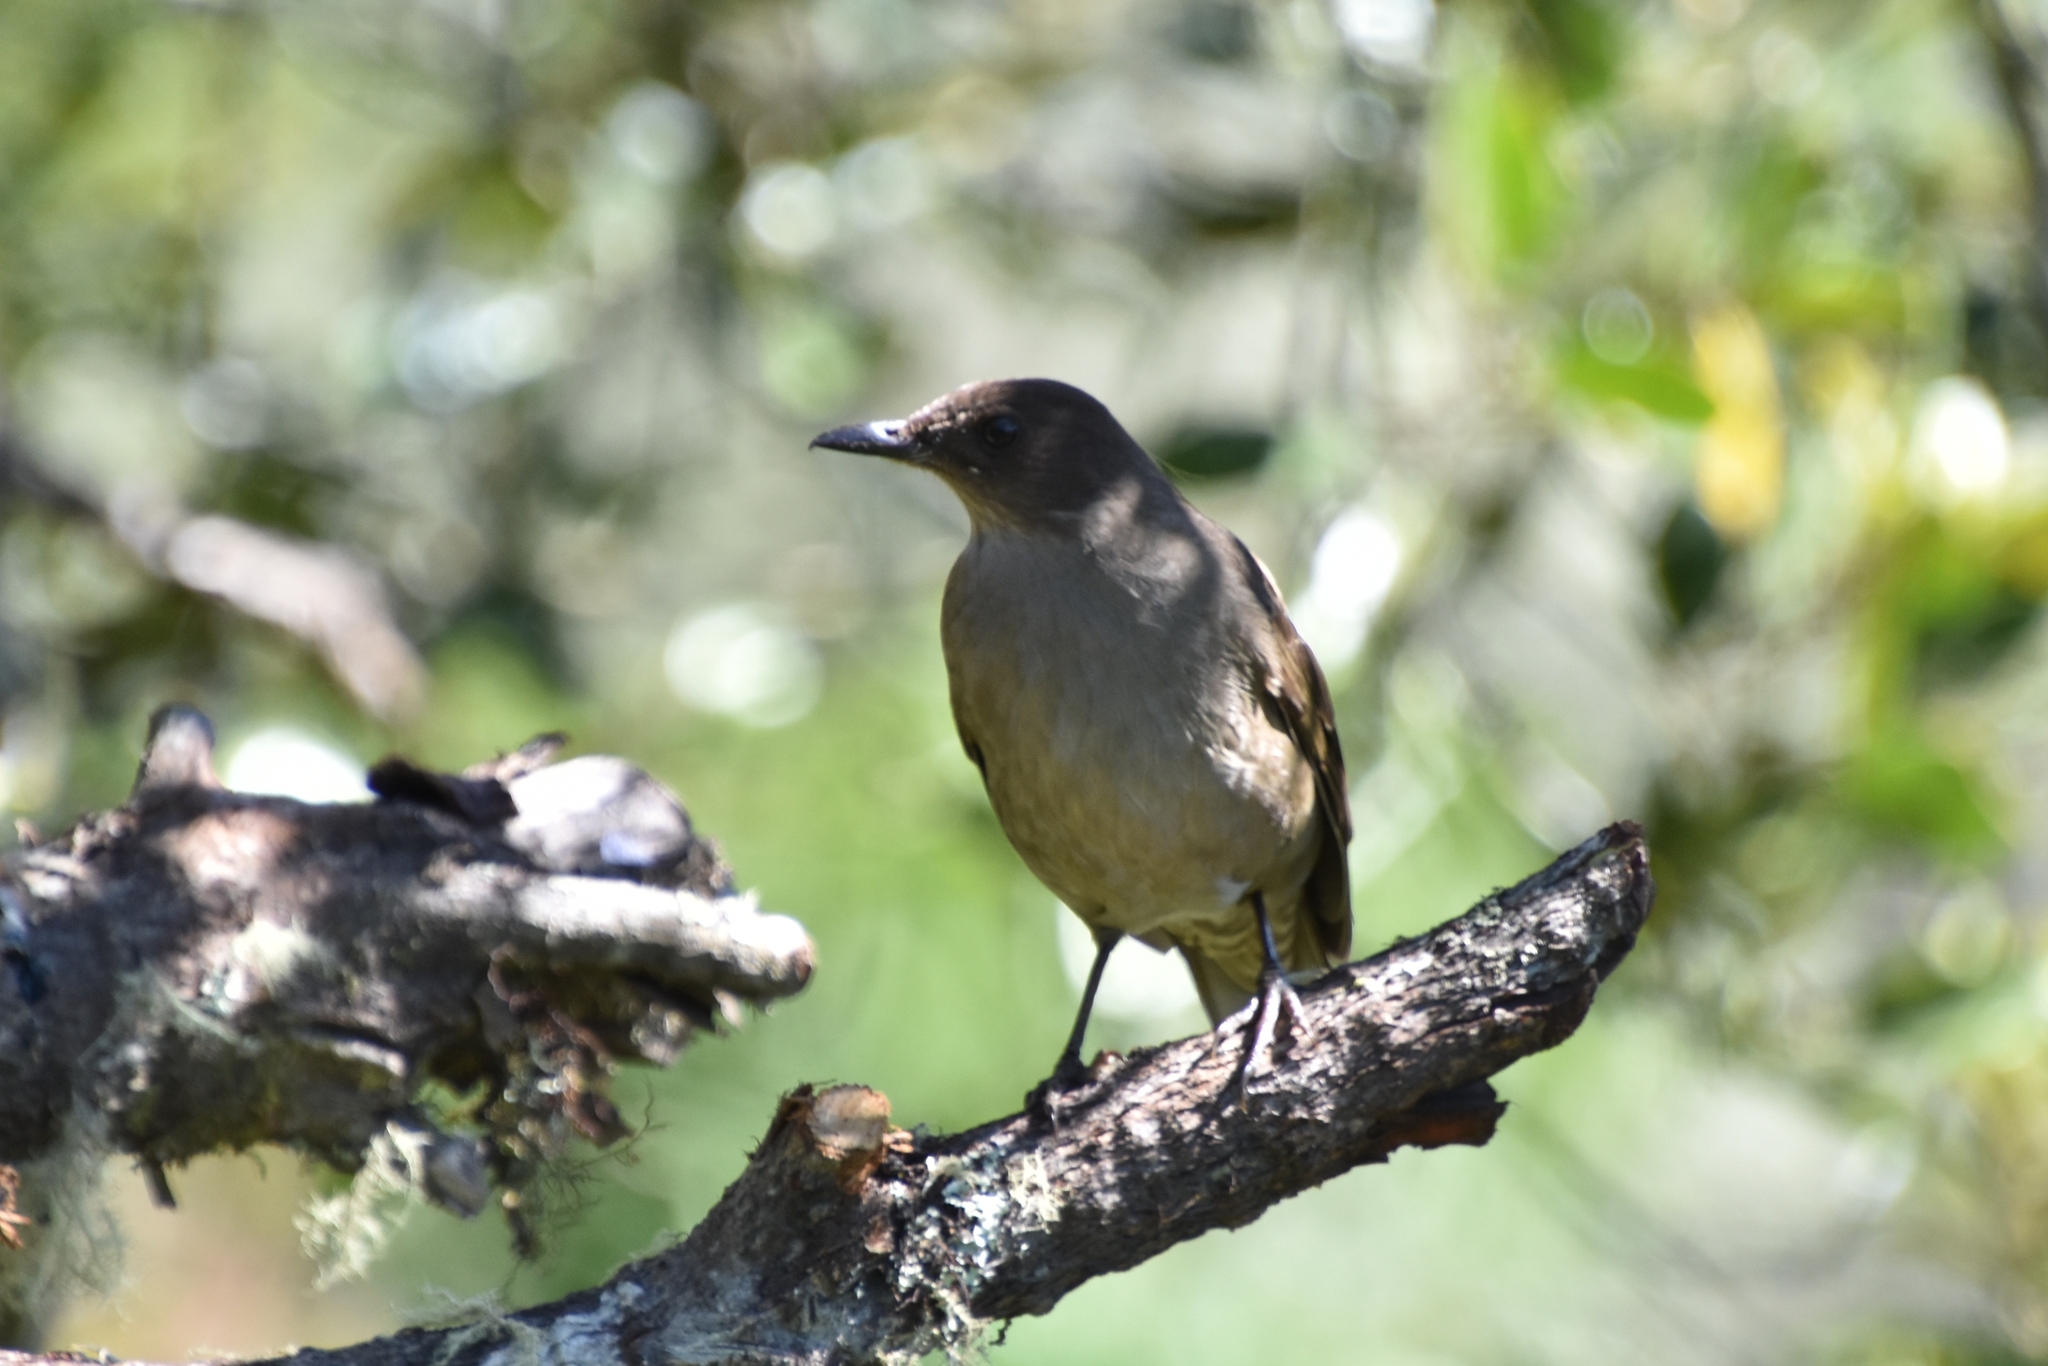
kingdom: Animalia
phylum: Chordata
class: Aves
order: Passeriformes
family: Turdidae
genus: Turdus
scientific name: Turdus plebejus
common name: Mountain thrush
